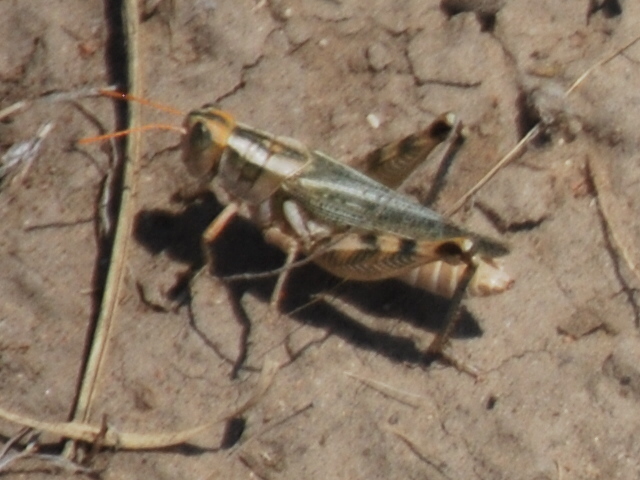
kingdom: Animalia
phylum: Arthropoda
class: Insecta
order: Orthoptera
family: Acrididae
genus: Aeoloplides
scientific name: Aeoloplides turnbulli
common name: Russianthistle grasshopper
